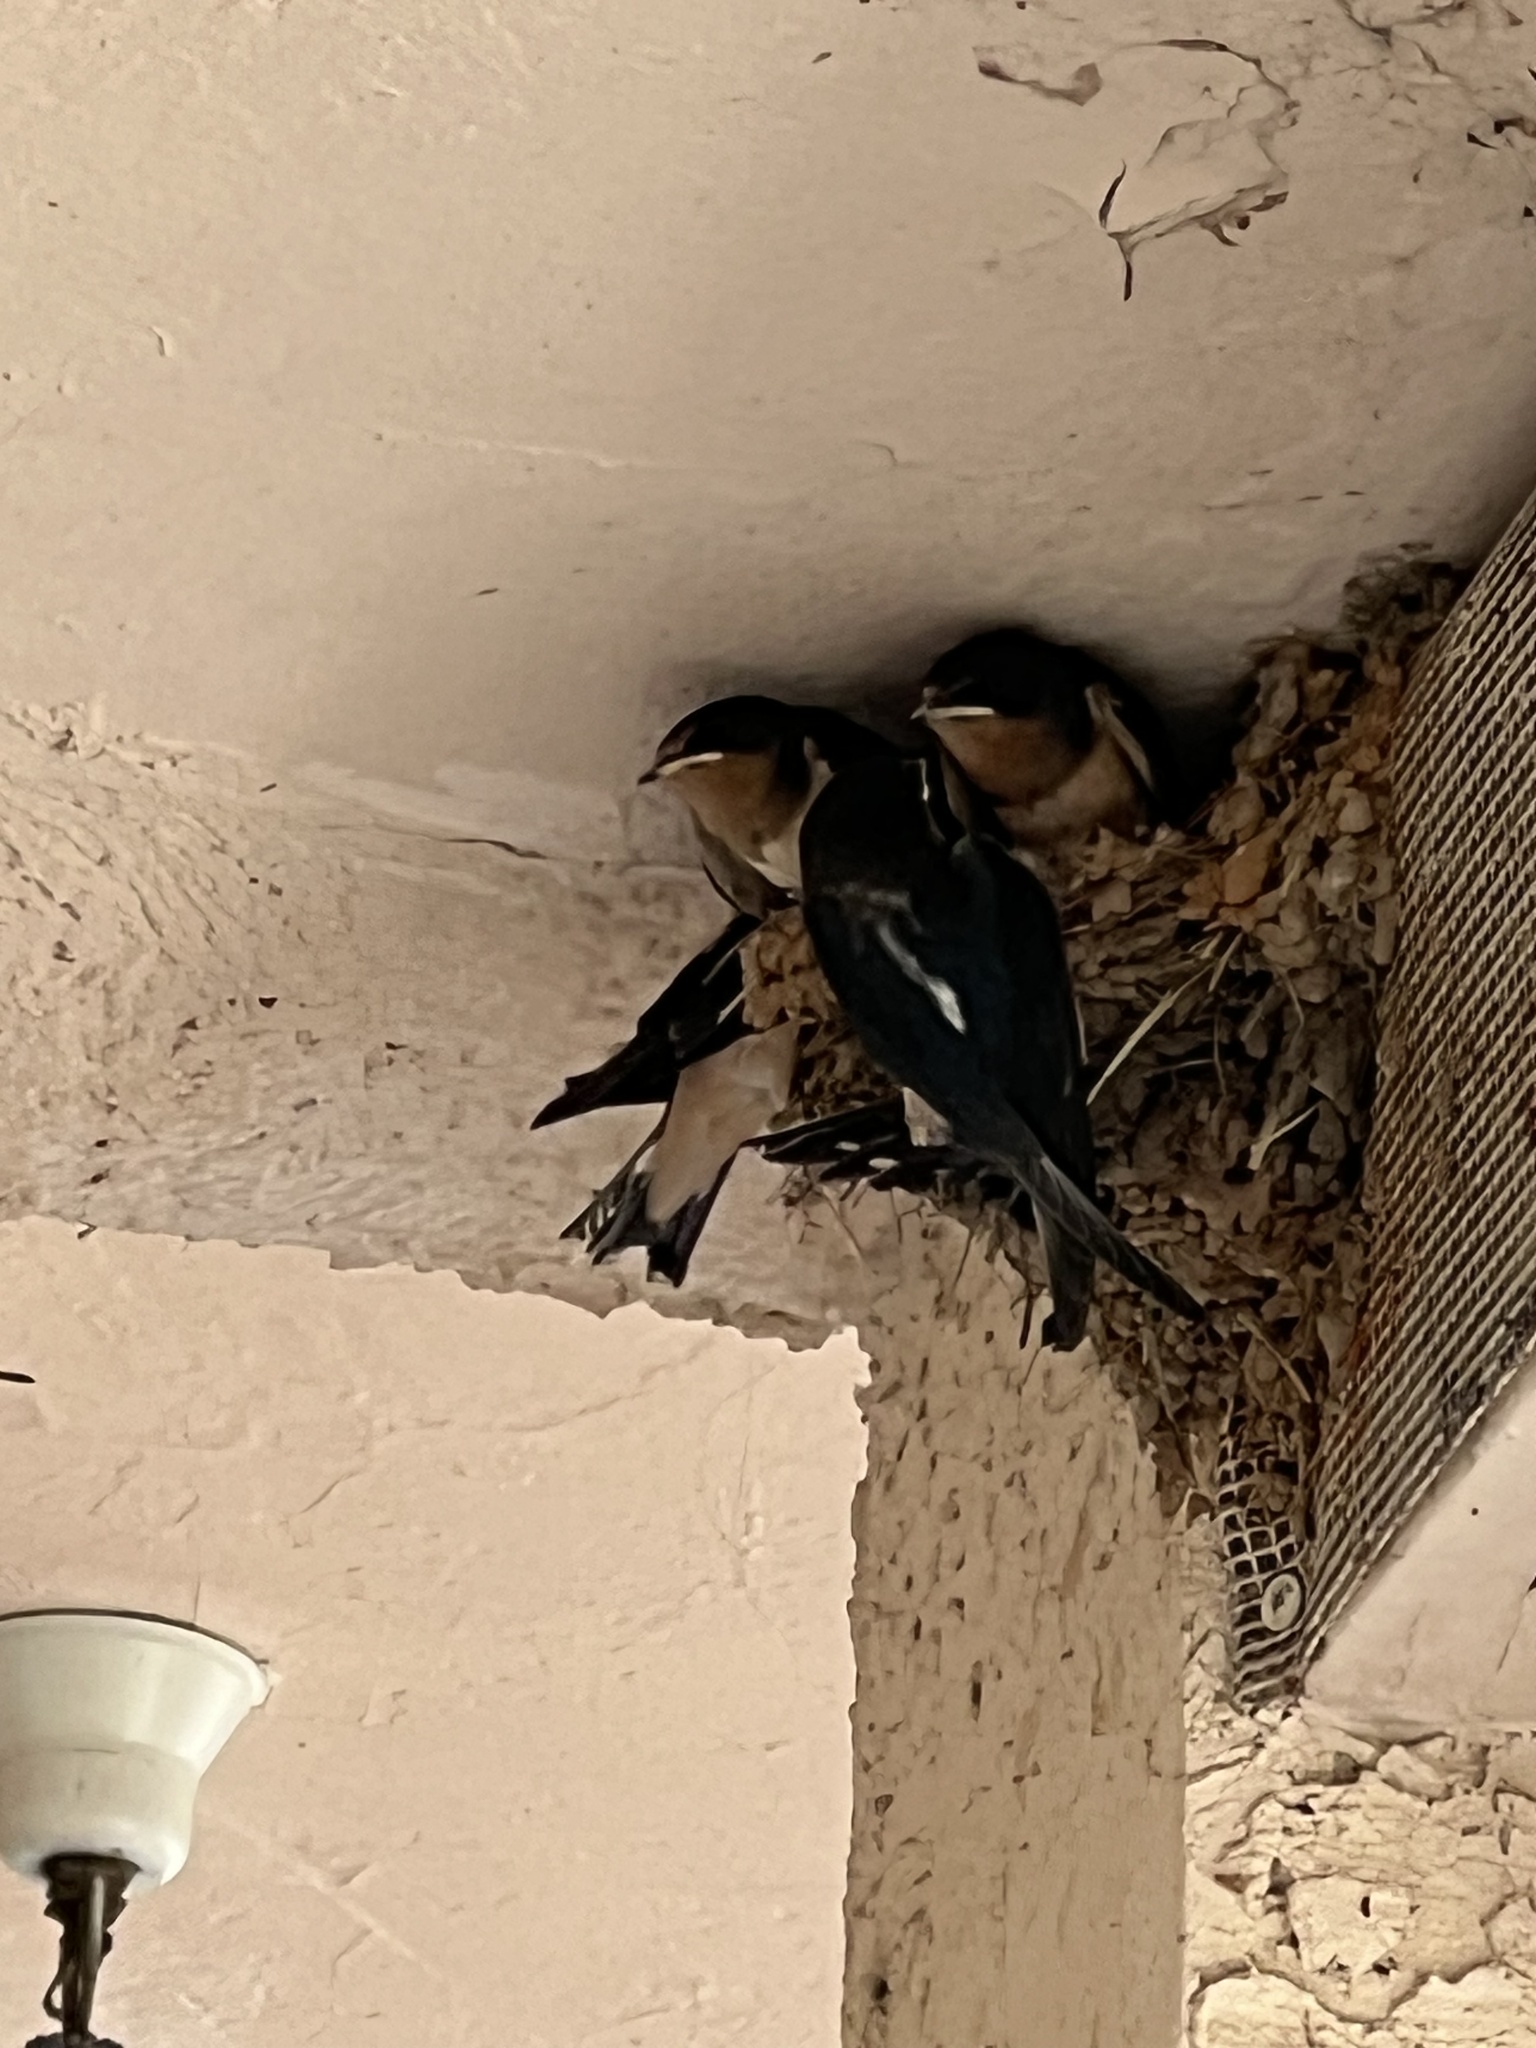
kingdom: Animalia
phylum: Chordata
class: Aves
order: Passeriformes
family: Hirundinidae
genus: Hirundo
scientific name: Hirundo rustica
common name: Barn swallow
